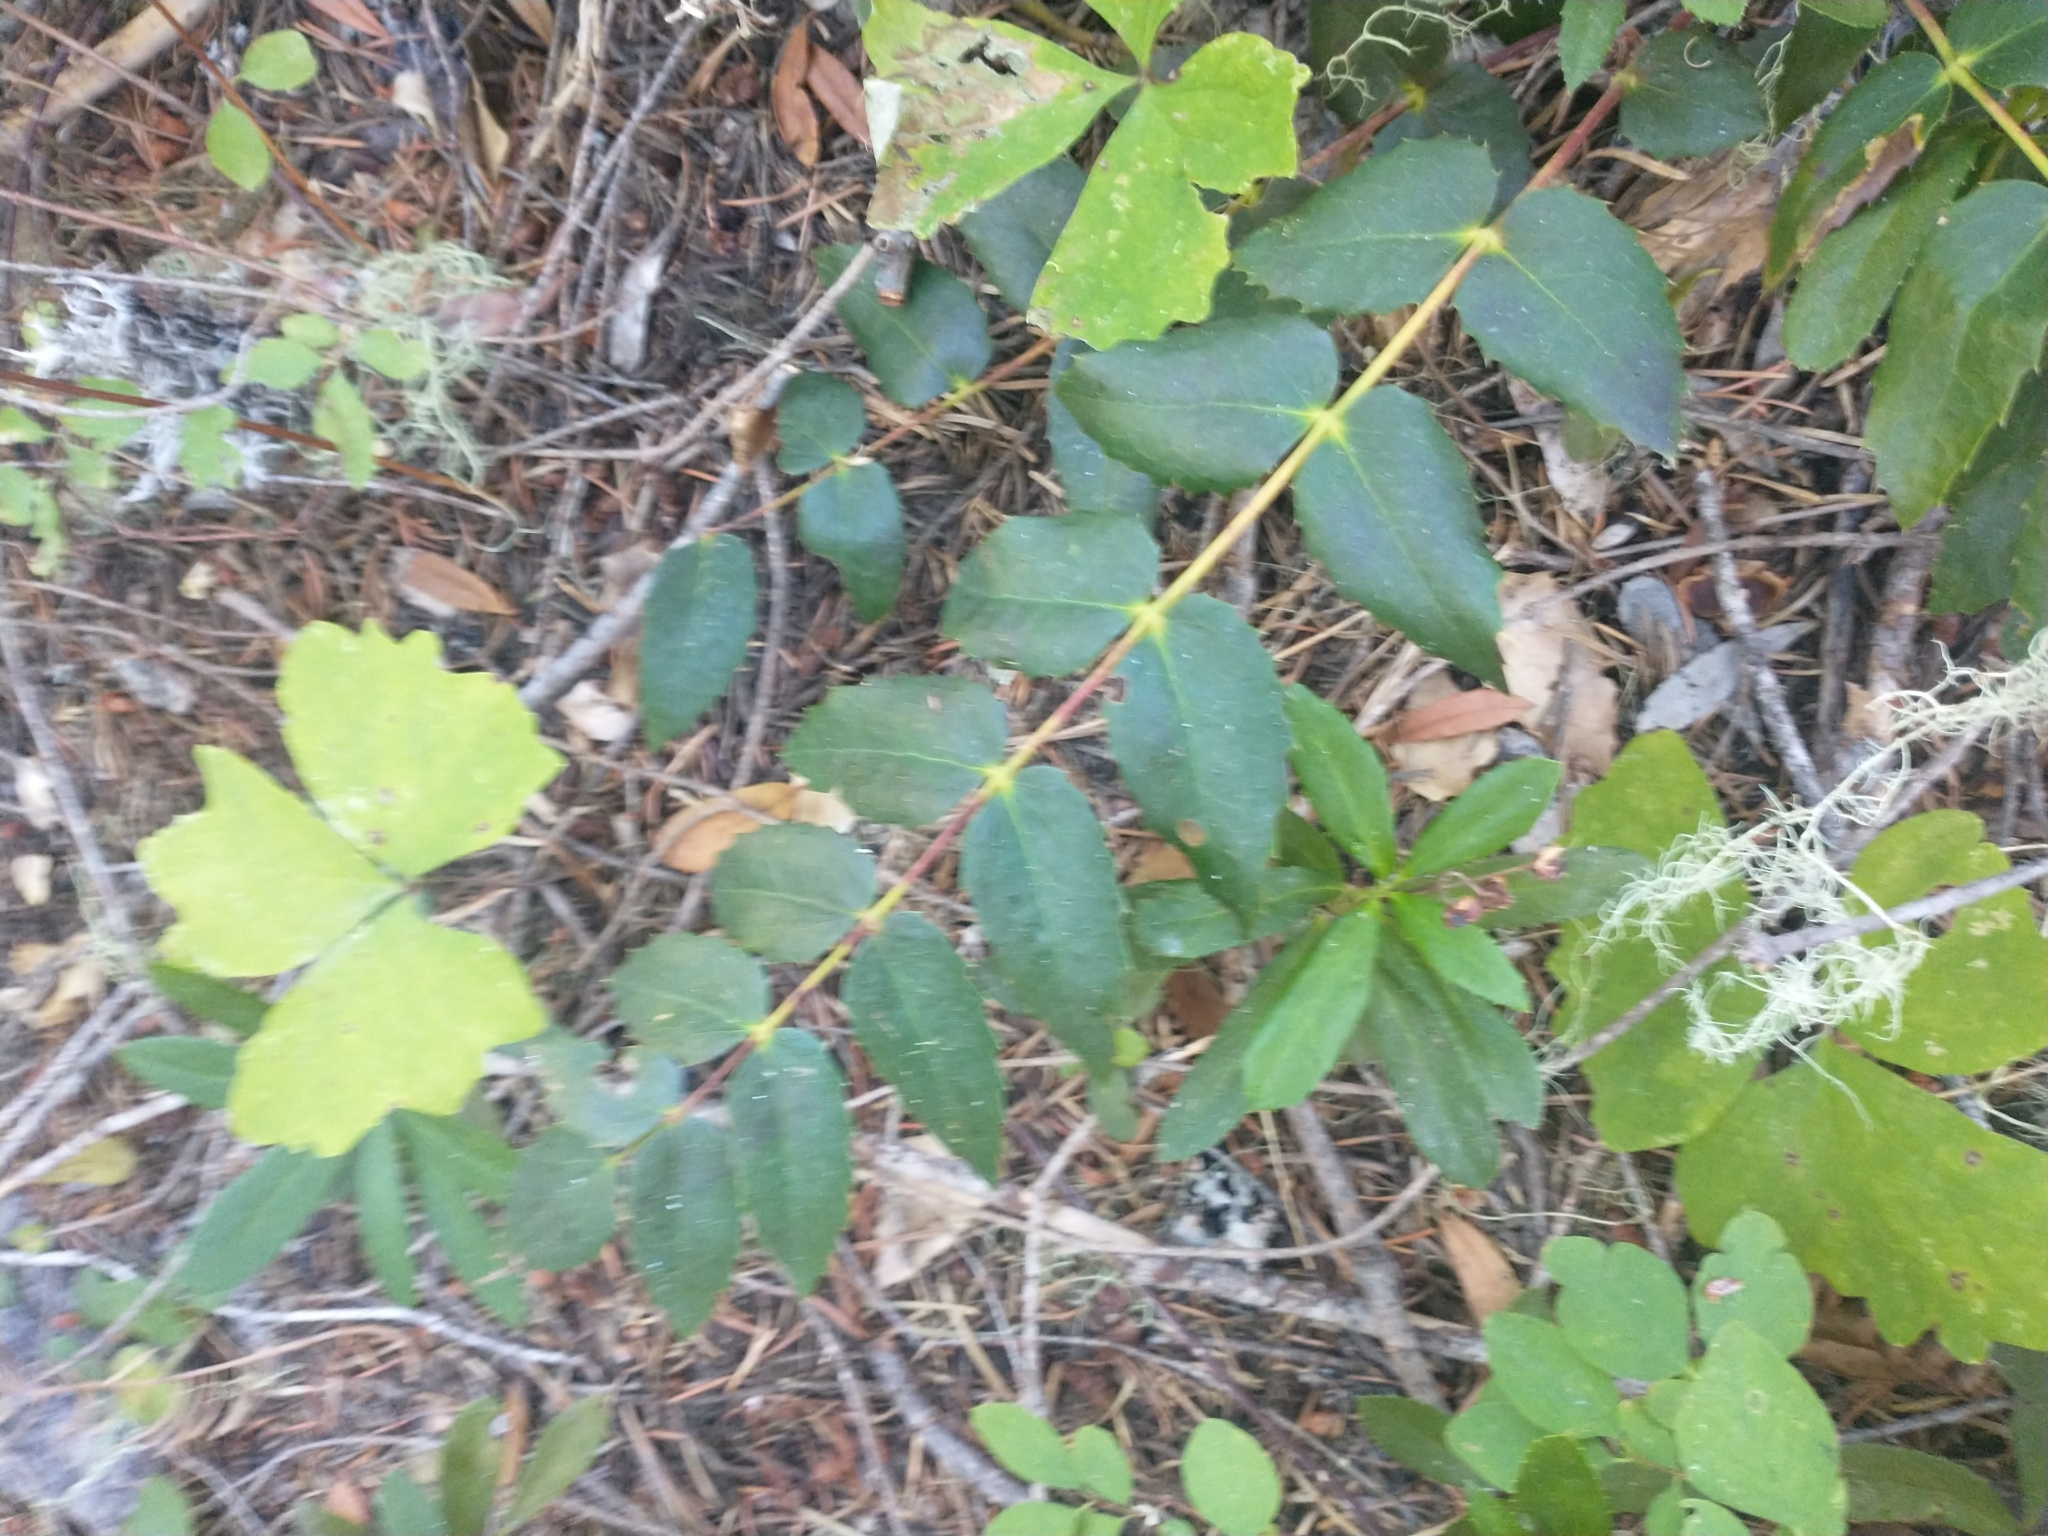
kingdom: Plantae
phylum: Tracheophyta
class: Magnoliopsida
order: Ranunculales
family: Berberidaceae
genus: Mahonia
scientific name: Mahonia nervosa
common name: Cascade oregon-grape
